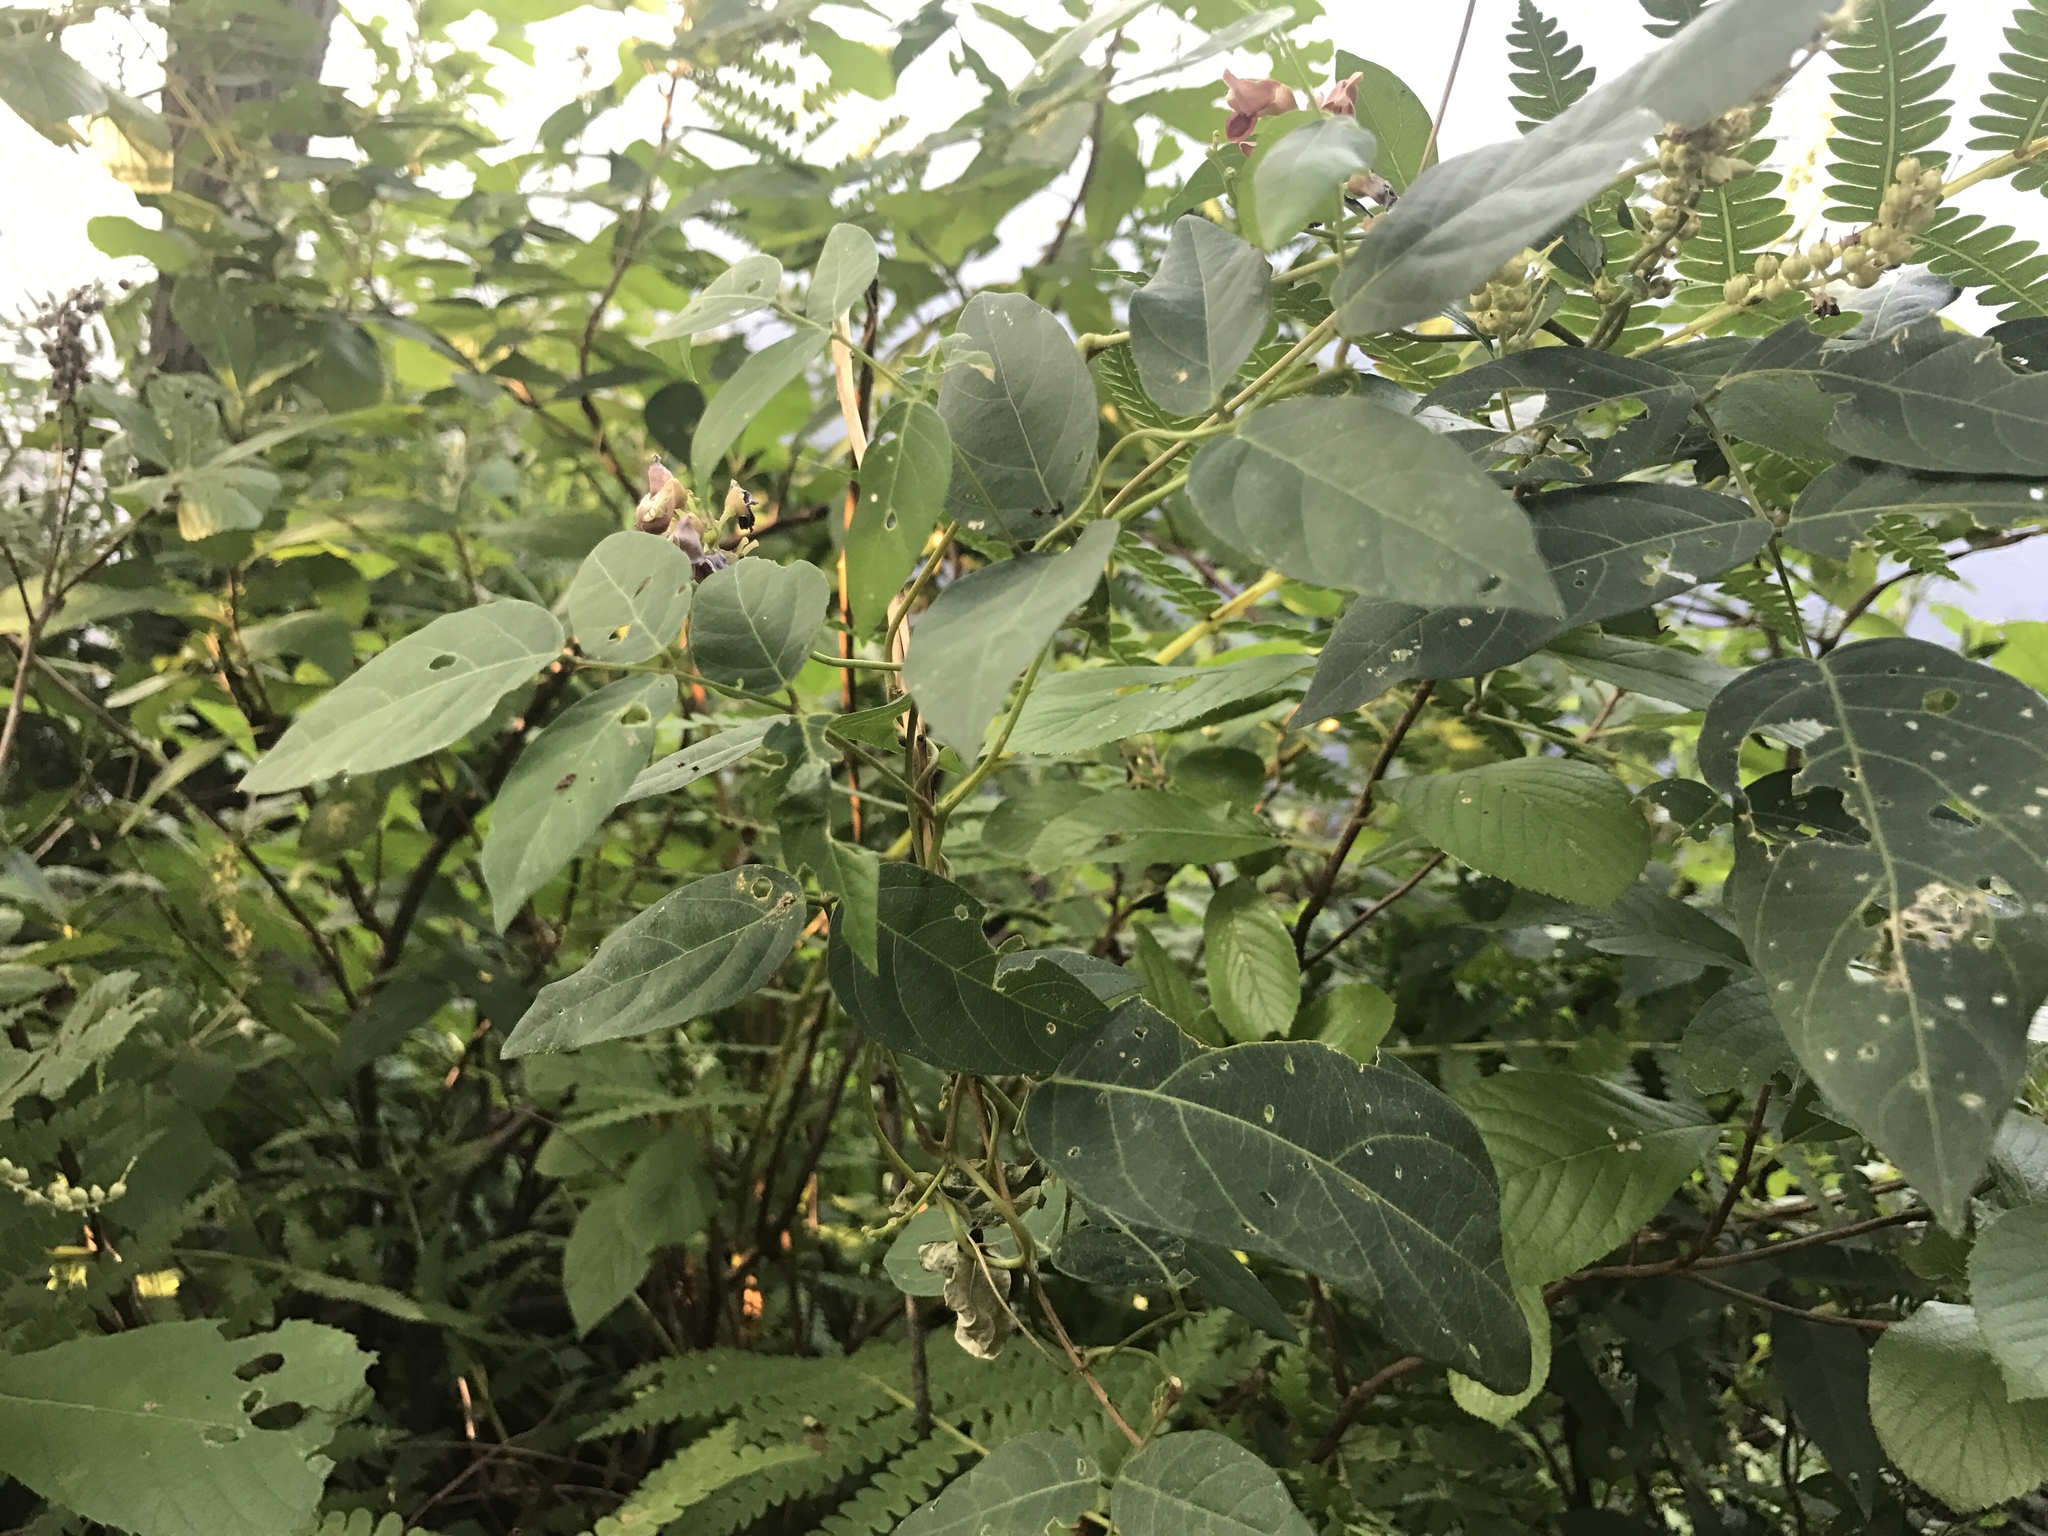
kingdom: Plantae
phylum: Tracheophyta
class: Magnoliopsida
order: Fabales
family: Fabaceae
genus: Apios
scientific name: Apios americana
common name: American potato-bean
